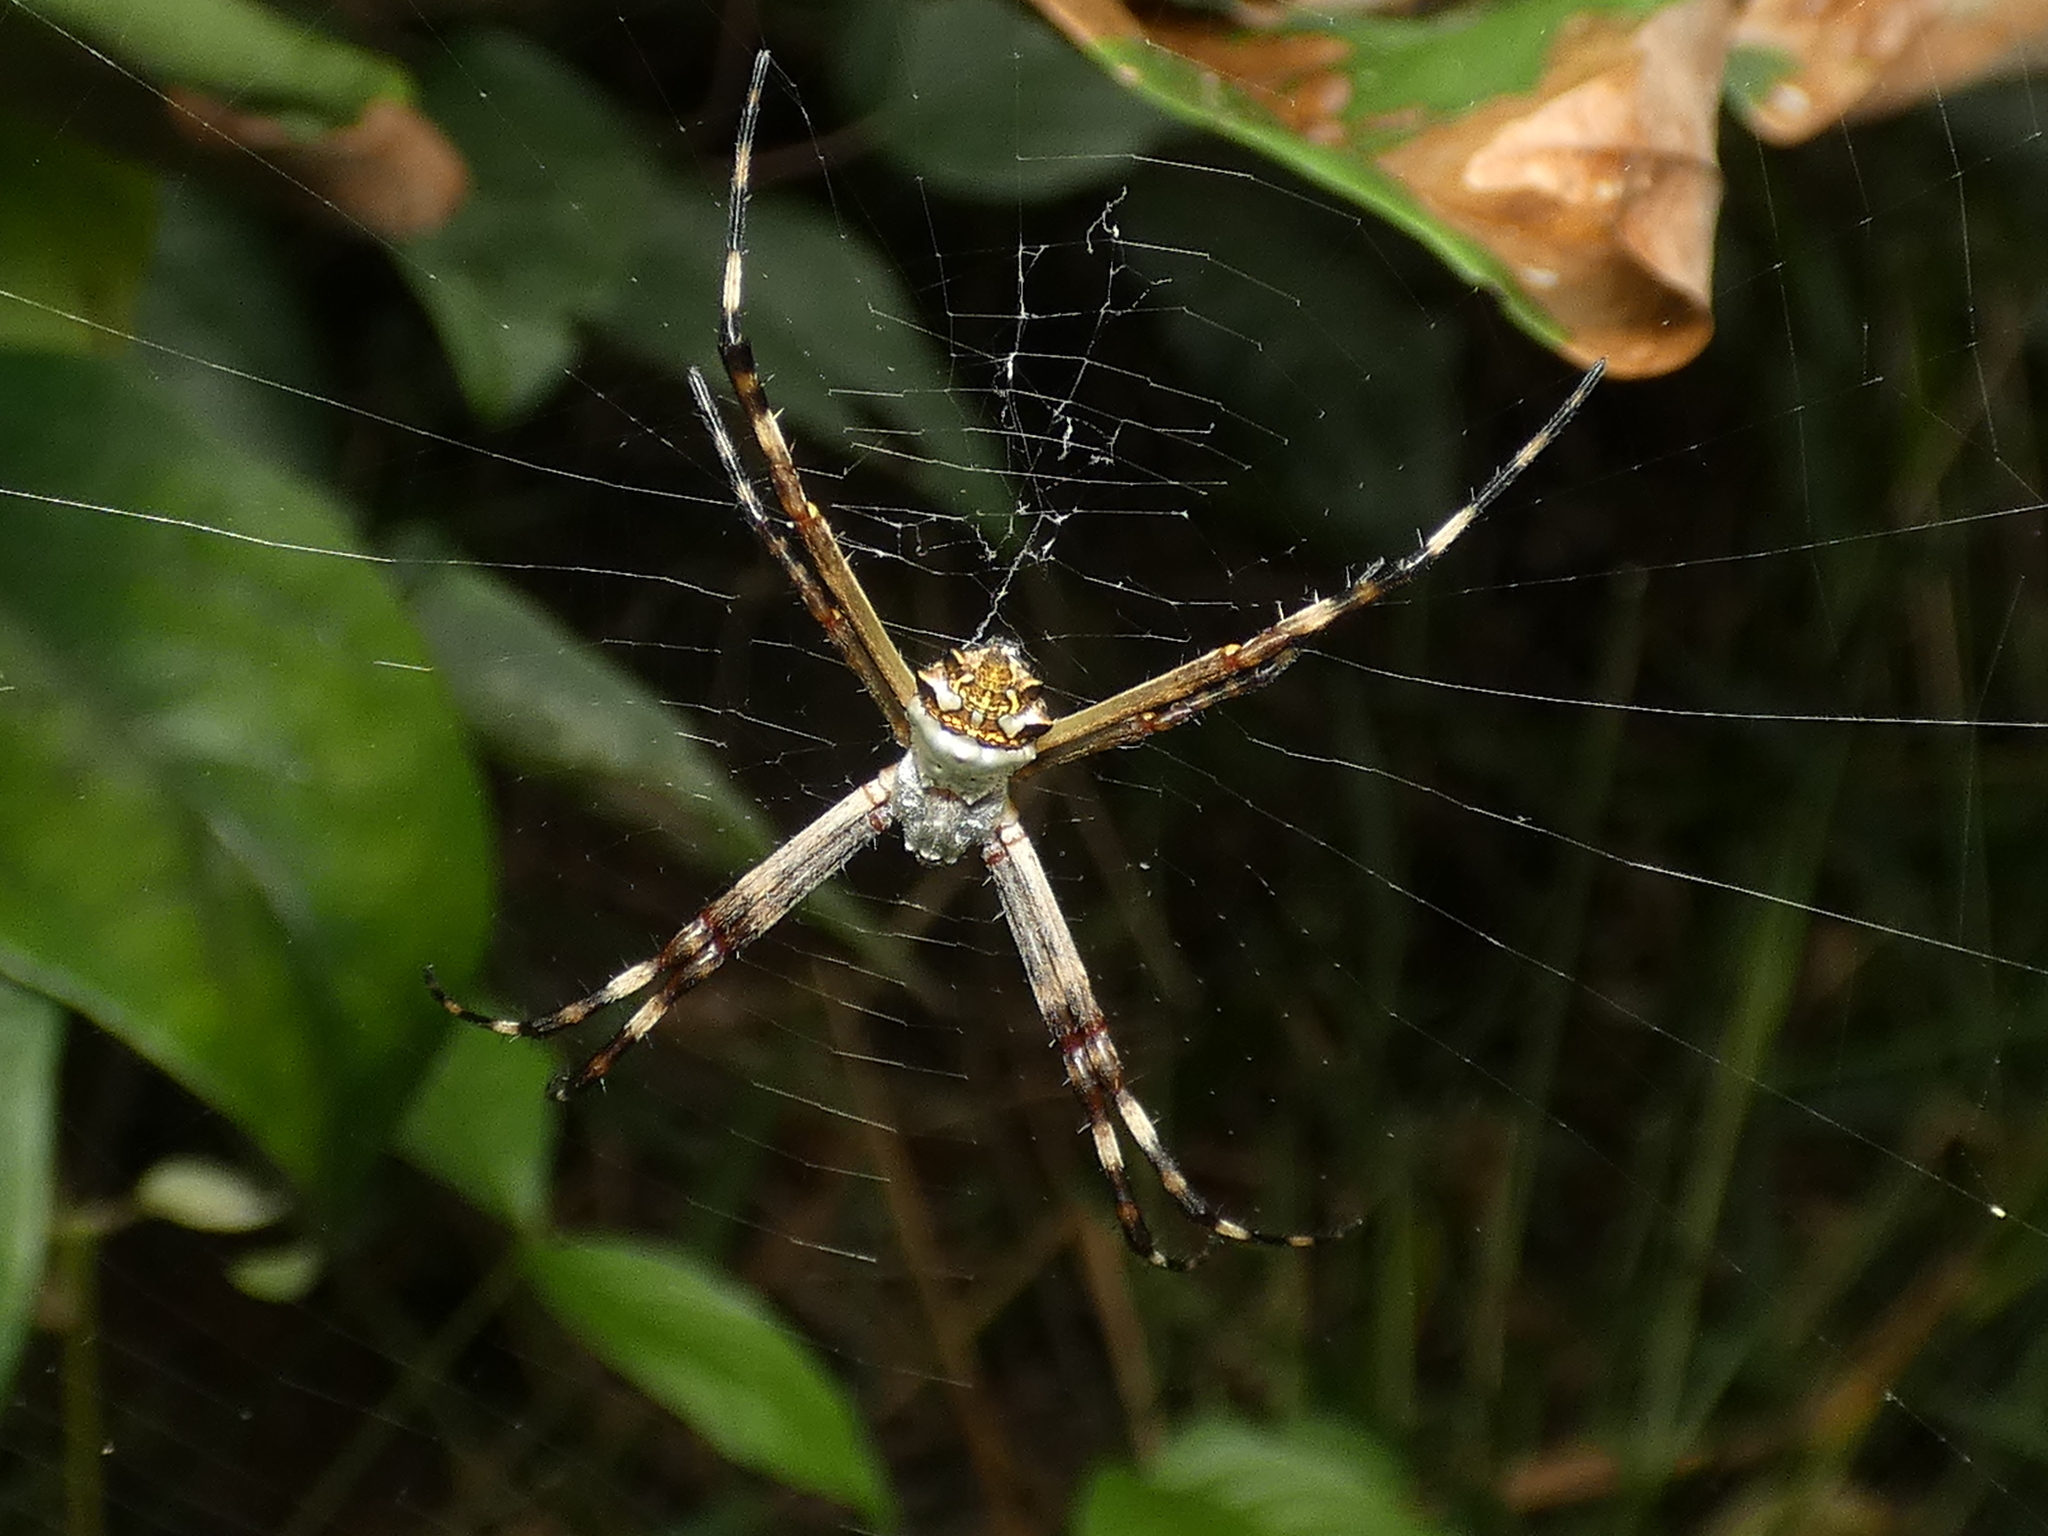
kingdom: Animalia
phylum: Arthropoda
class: Arachnida
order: Araneae
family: Araneidae
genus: Argiope
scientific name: Argiope argentata
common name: Orb weavers
